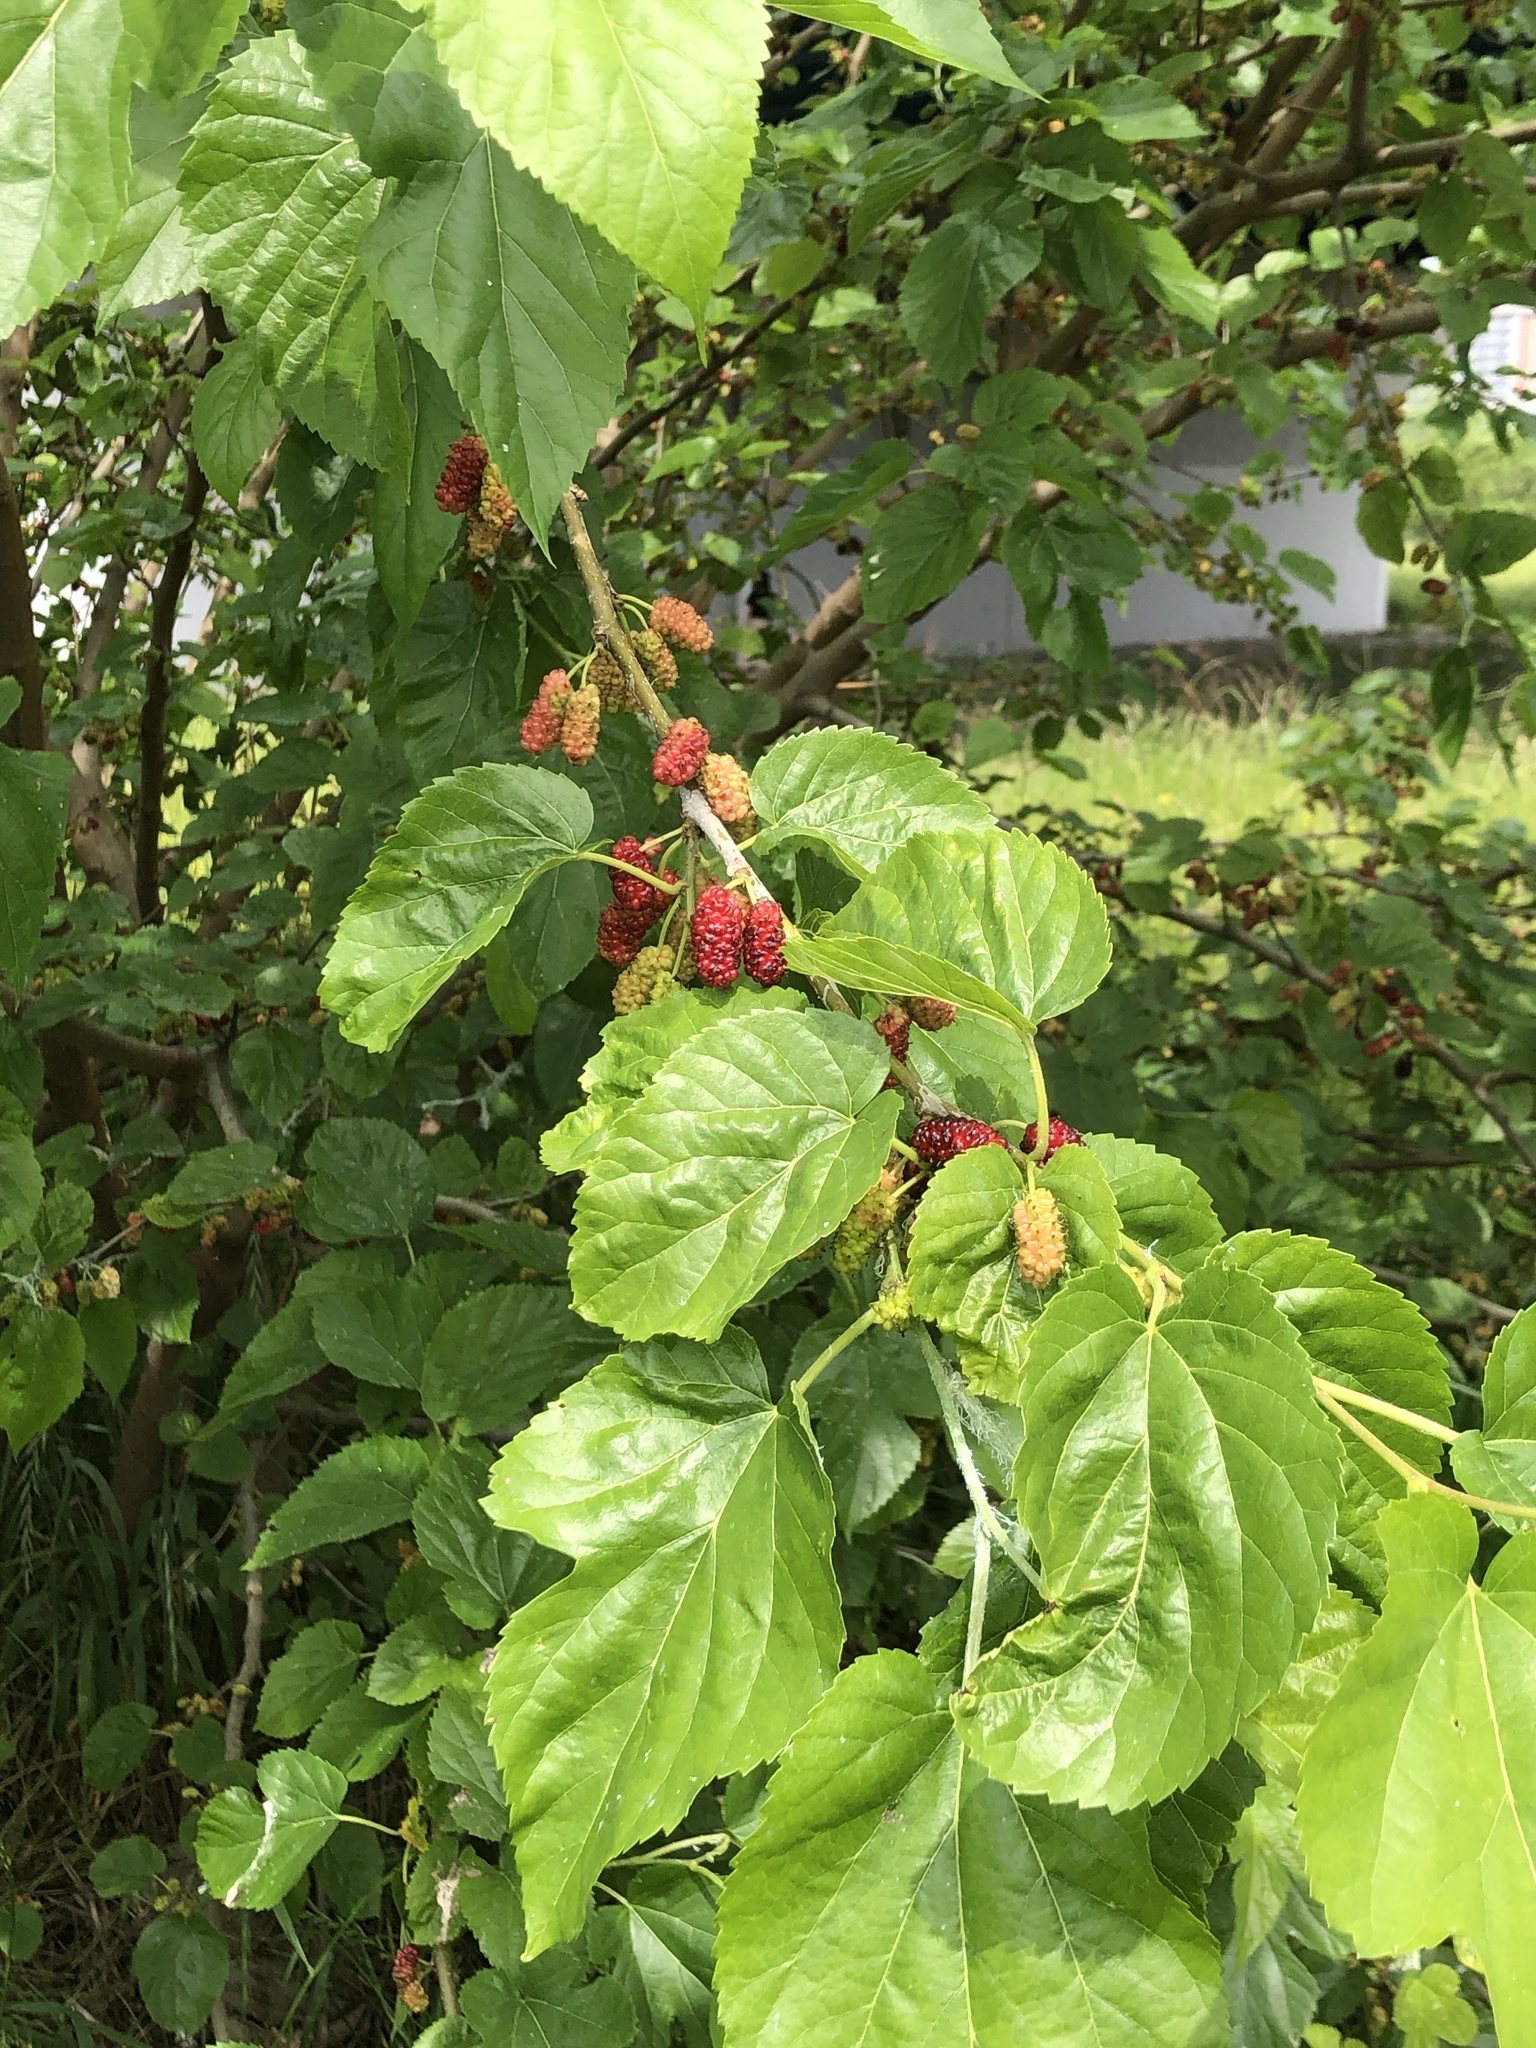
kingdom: Plantae
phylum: Tracheophyta
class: Magnoliopsida
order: Rosales
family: Moraceae
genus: Morus
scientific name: Morus indica
